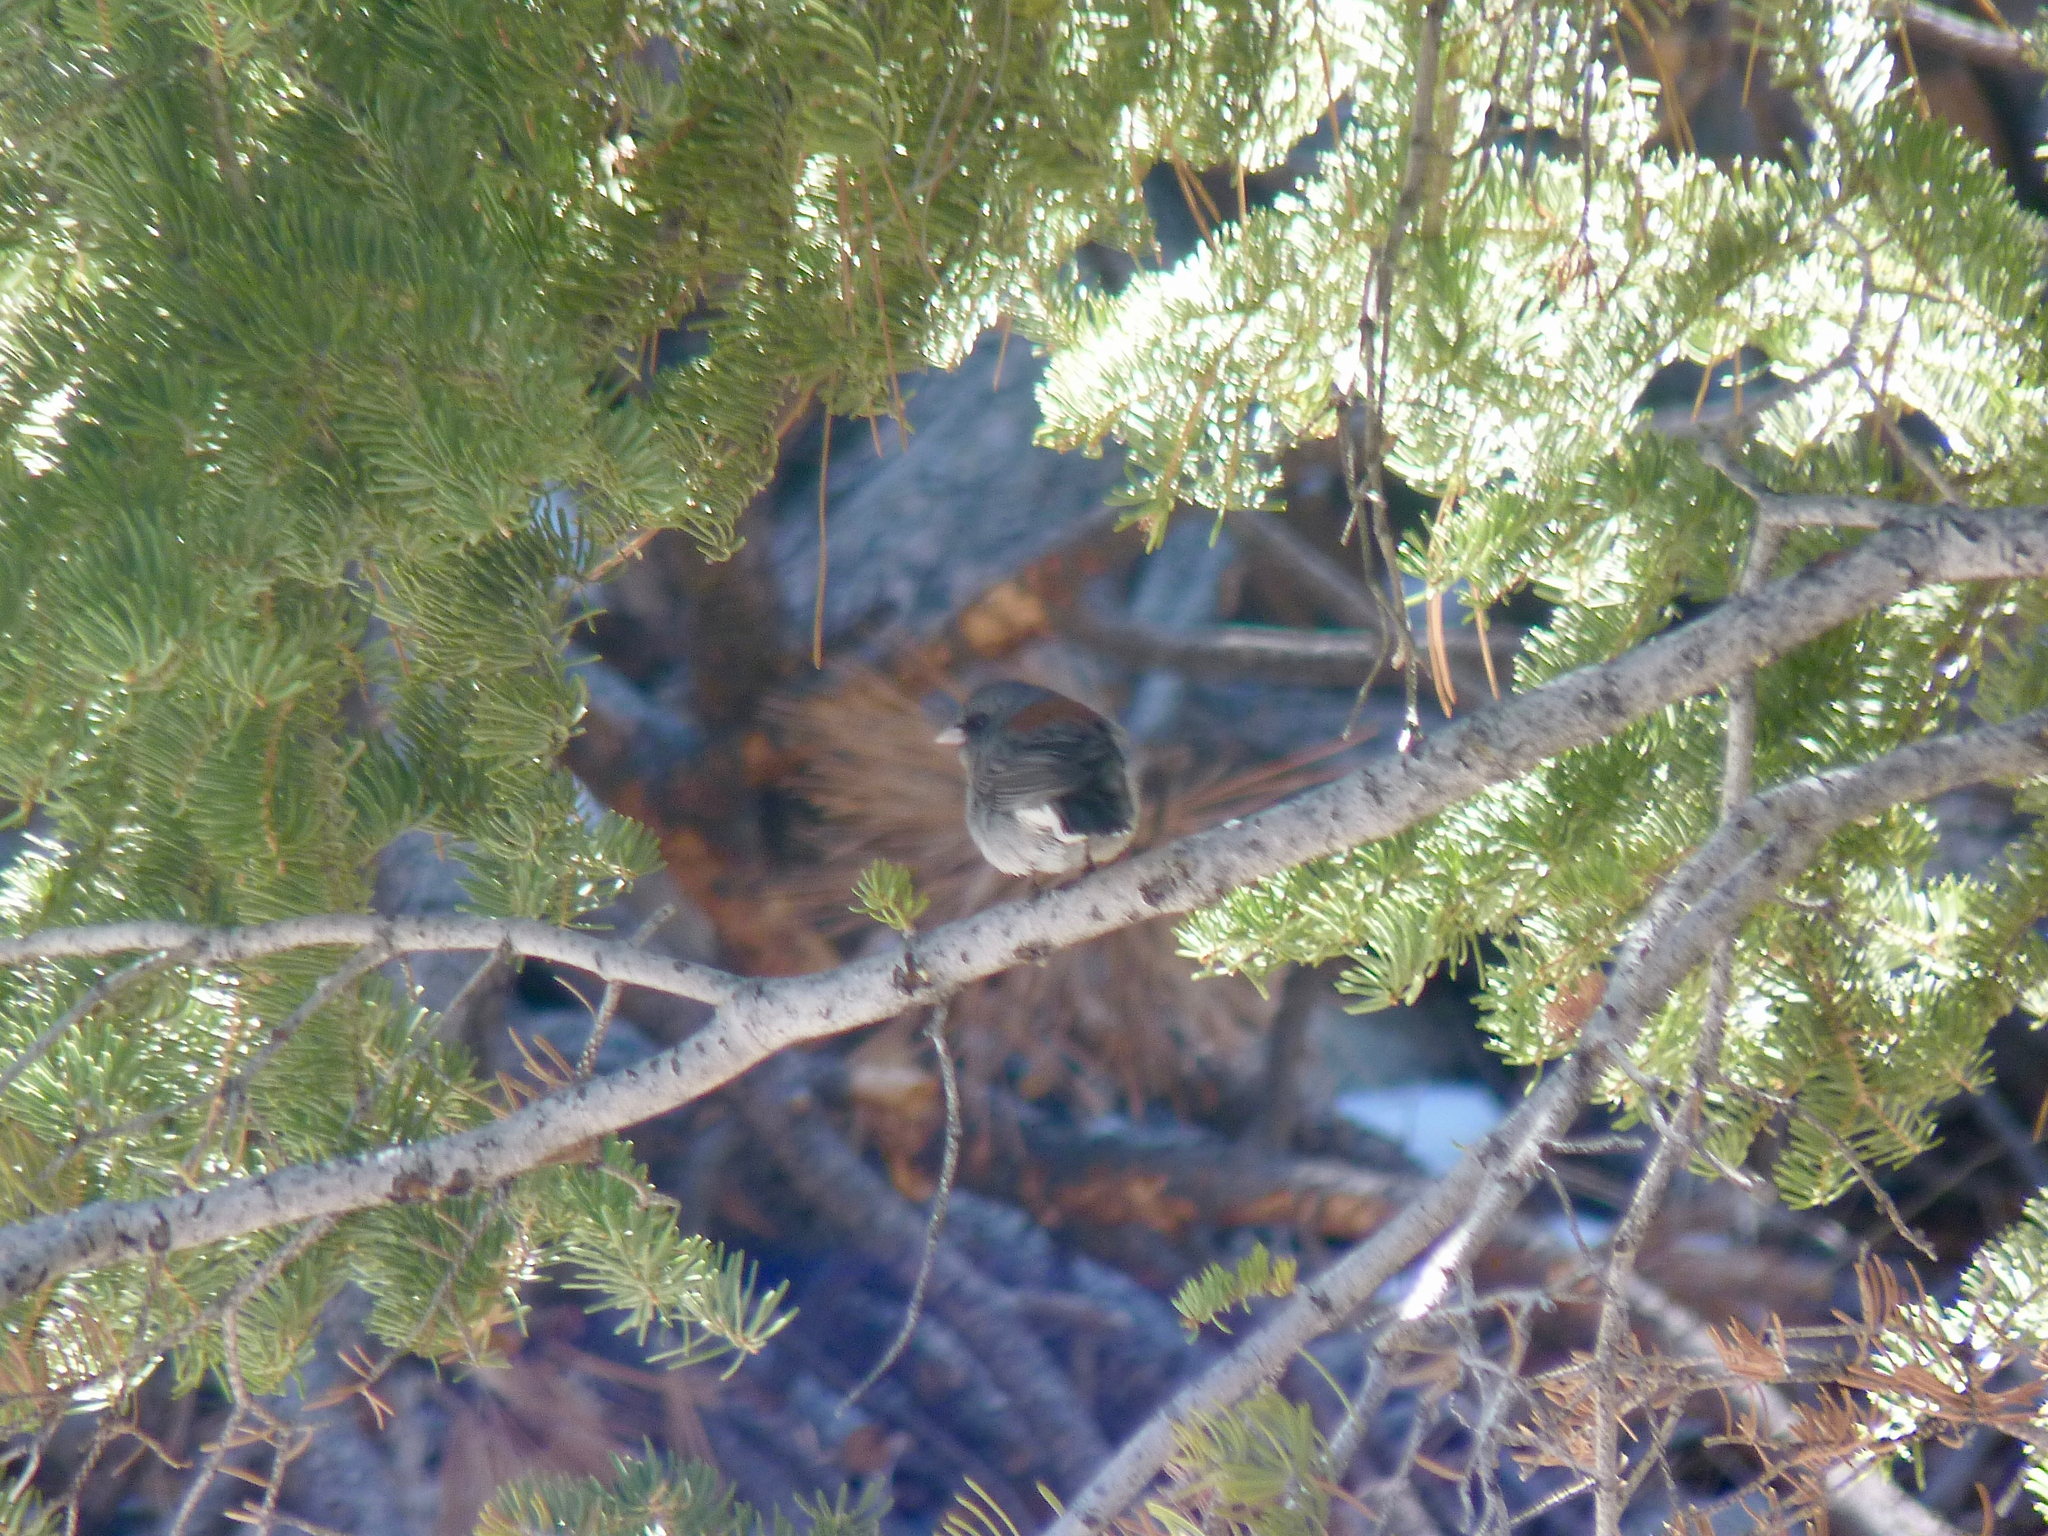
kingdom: Animalia
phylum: Chordata
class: Aves
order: Passeriformes
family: Passerellidae
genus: Junco
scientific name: Junco hyemalis
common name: Dark-eyed junco
